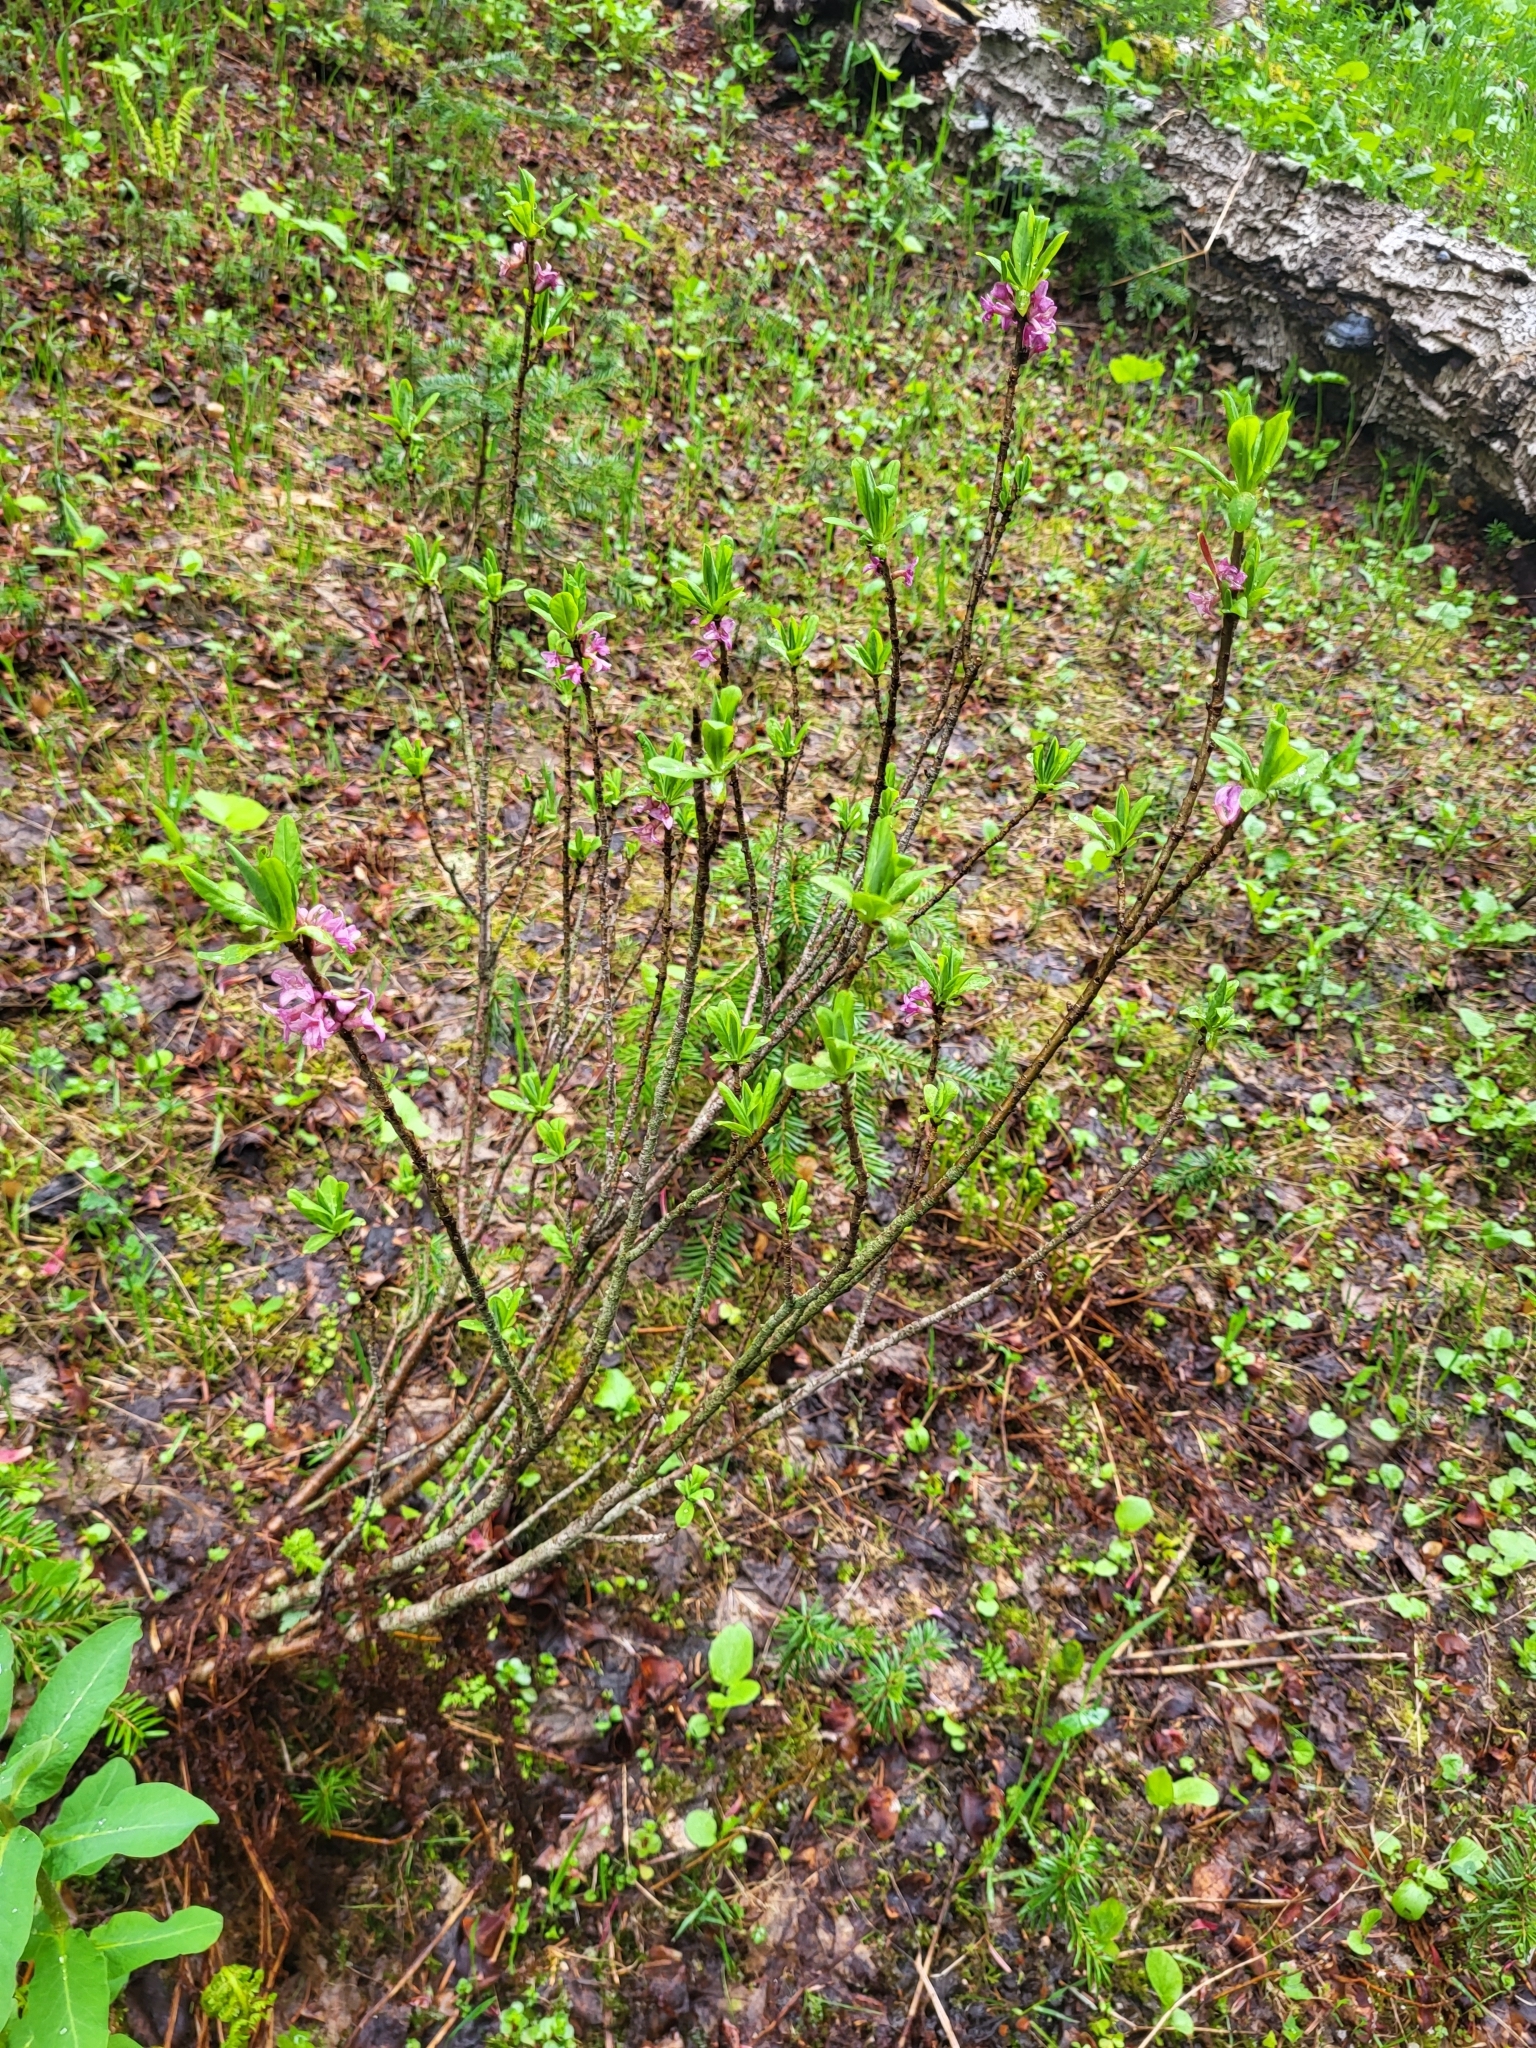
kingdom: Plantae
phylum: Tracheophyta
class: Magnoliopsida
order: Malvales
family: Thymelaeaceae
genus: Daphne
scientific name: Daphne mezereum
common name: Mezereon
